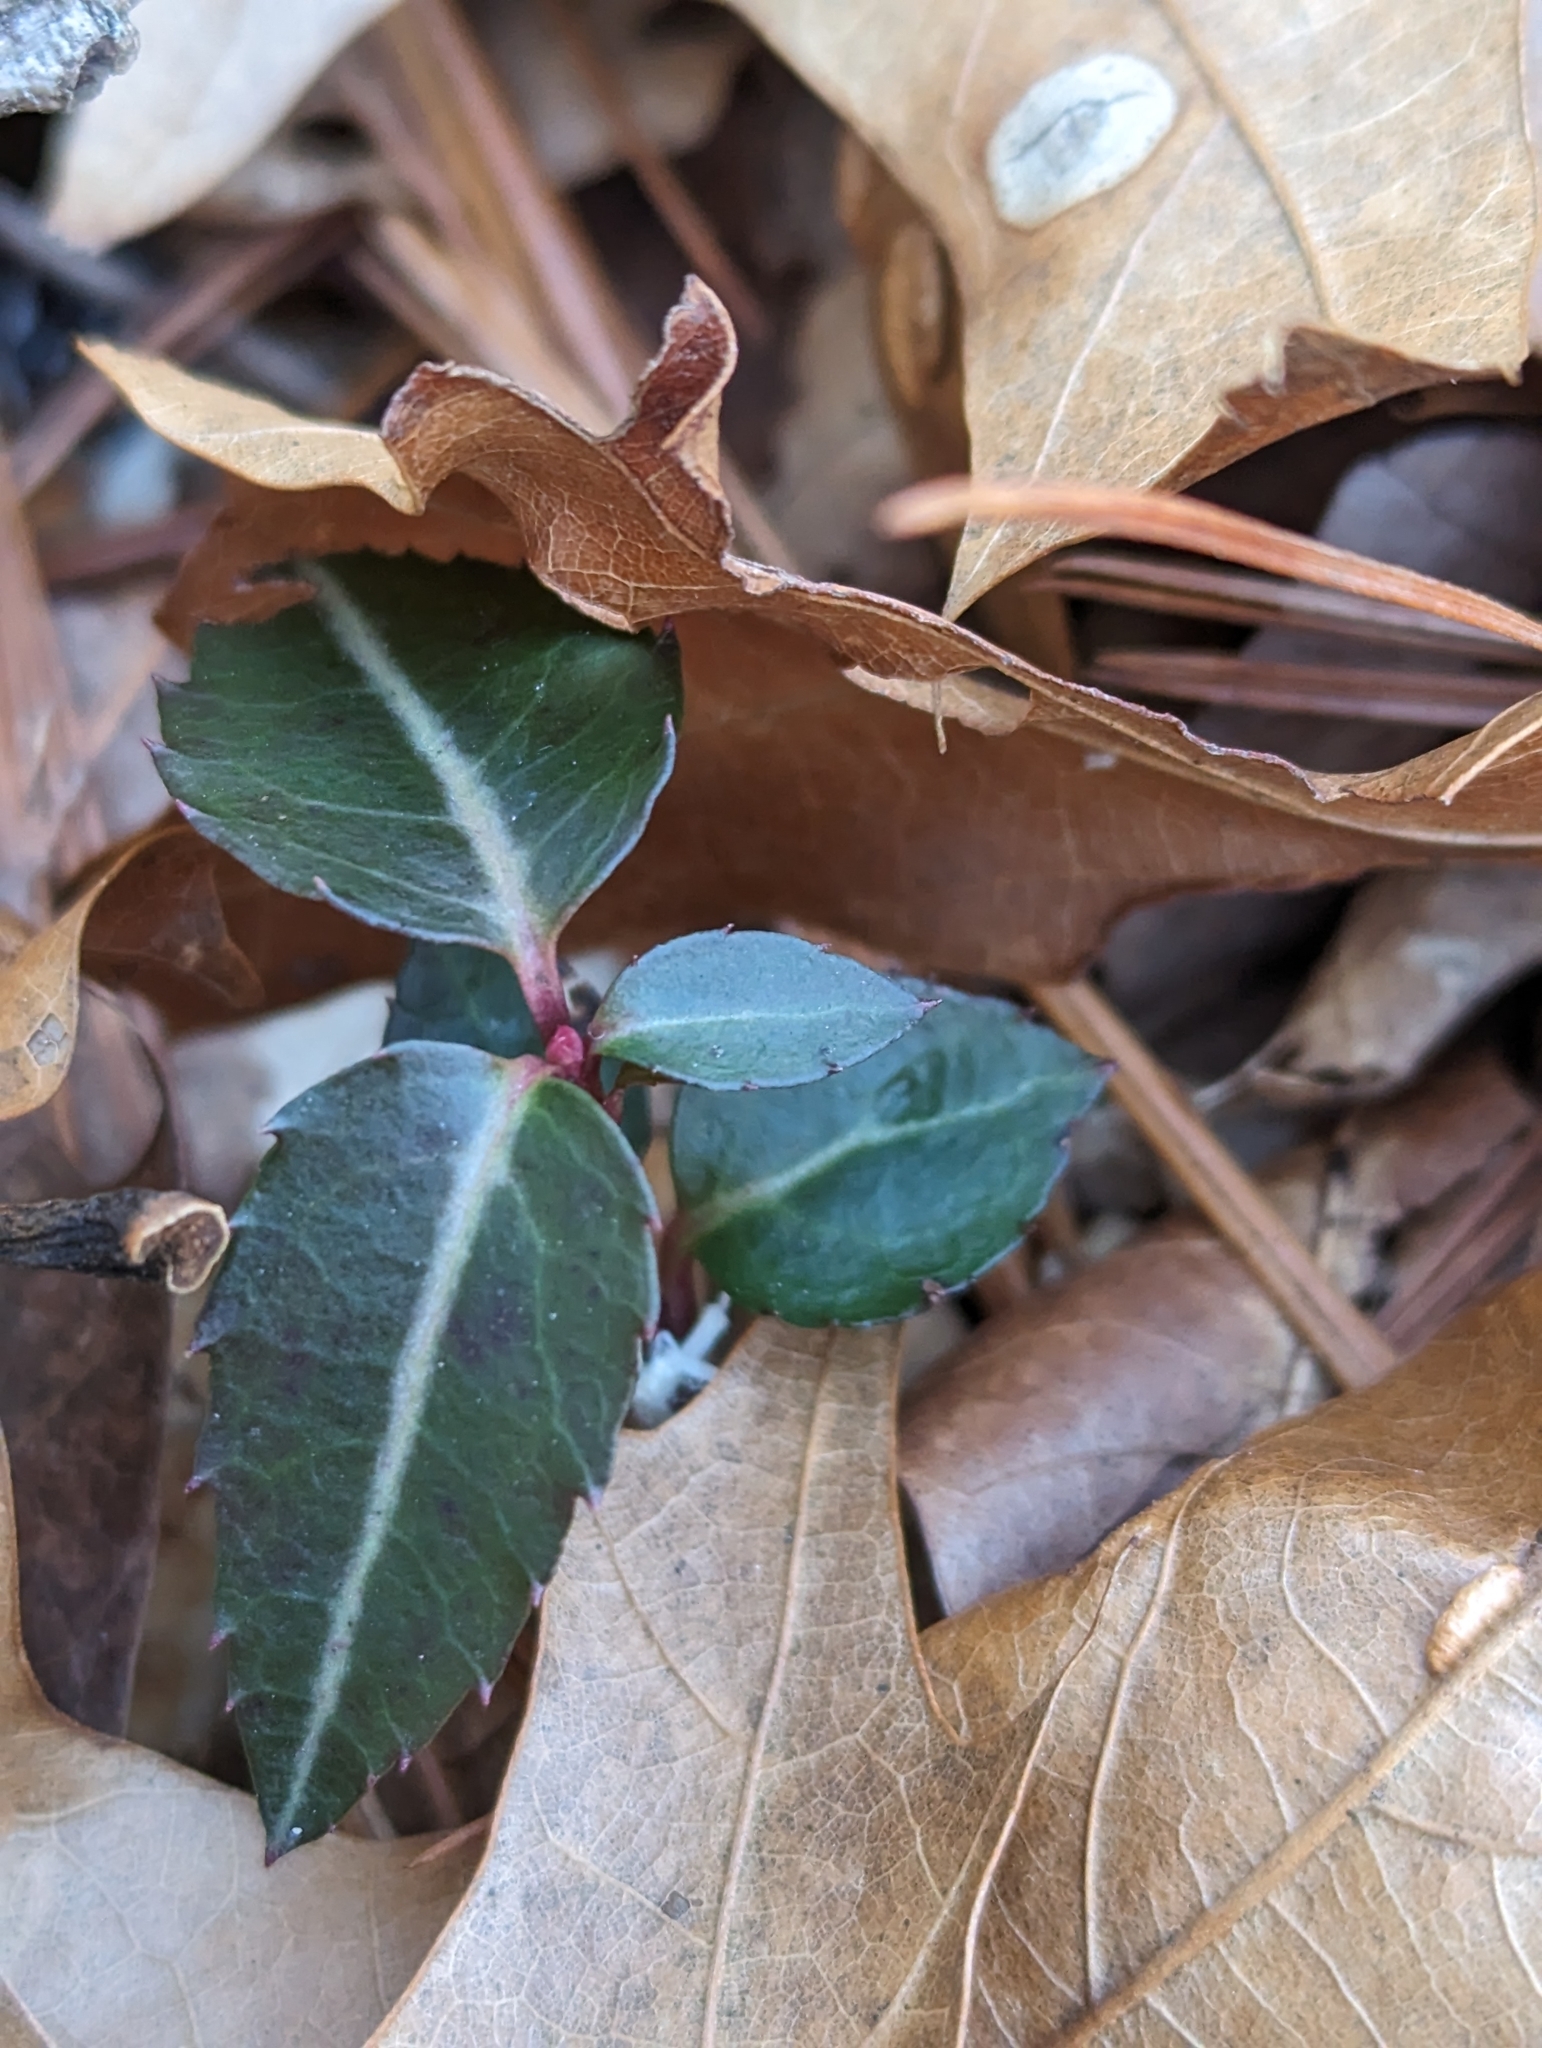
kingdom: Plantae
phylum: Tracheophyta
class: Magnoliopsida
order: Ericales
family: Ericaceae
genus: Chimaphila
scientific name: Chimaphila maculata
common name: Spotted pipsissewa
